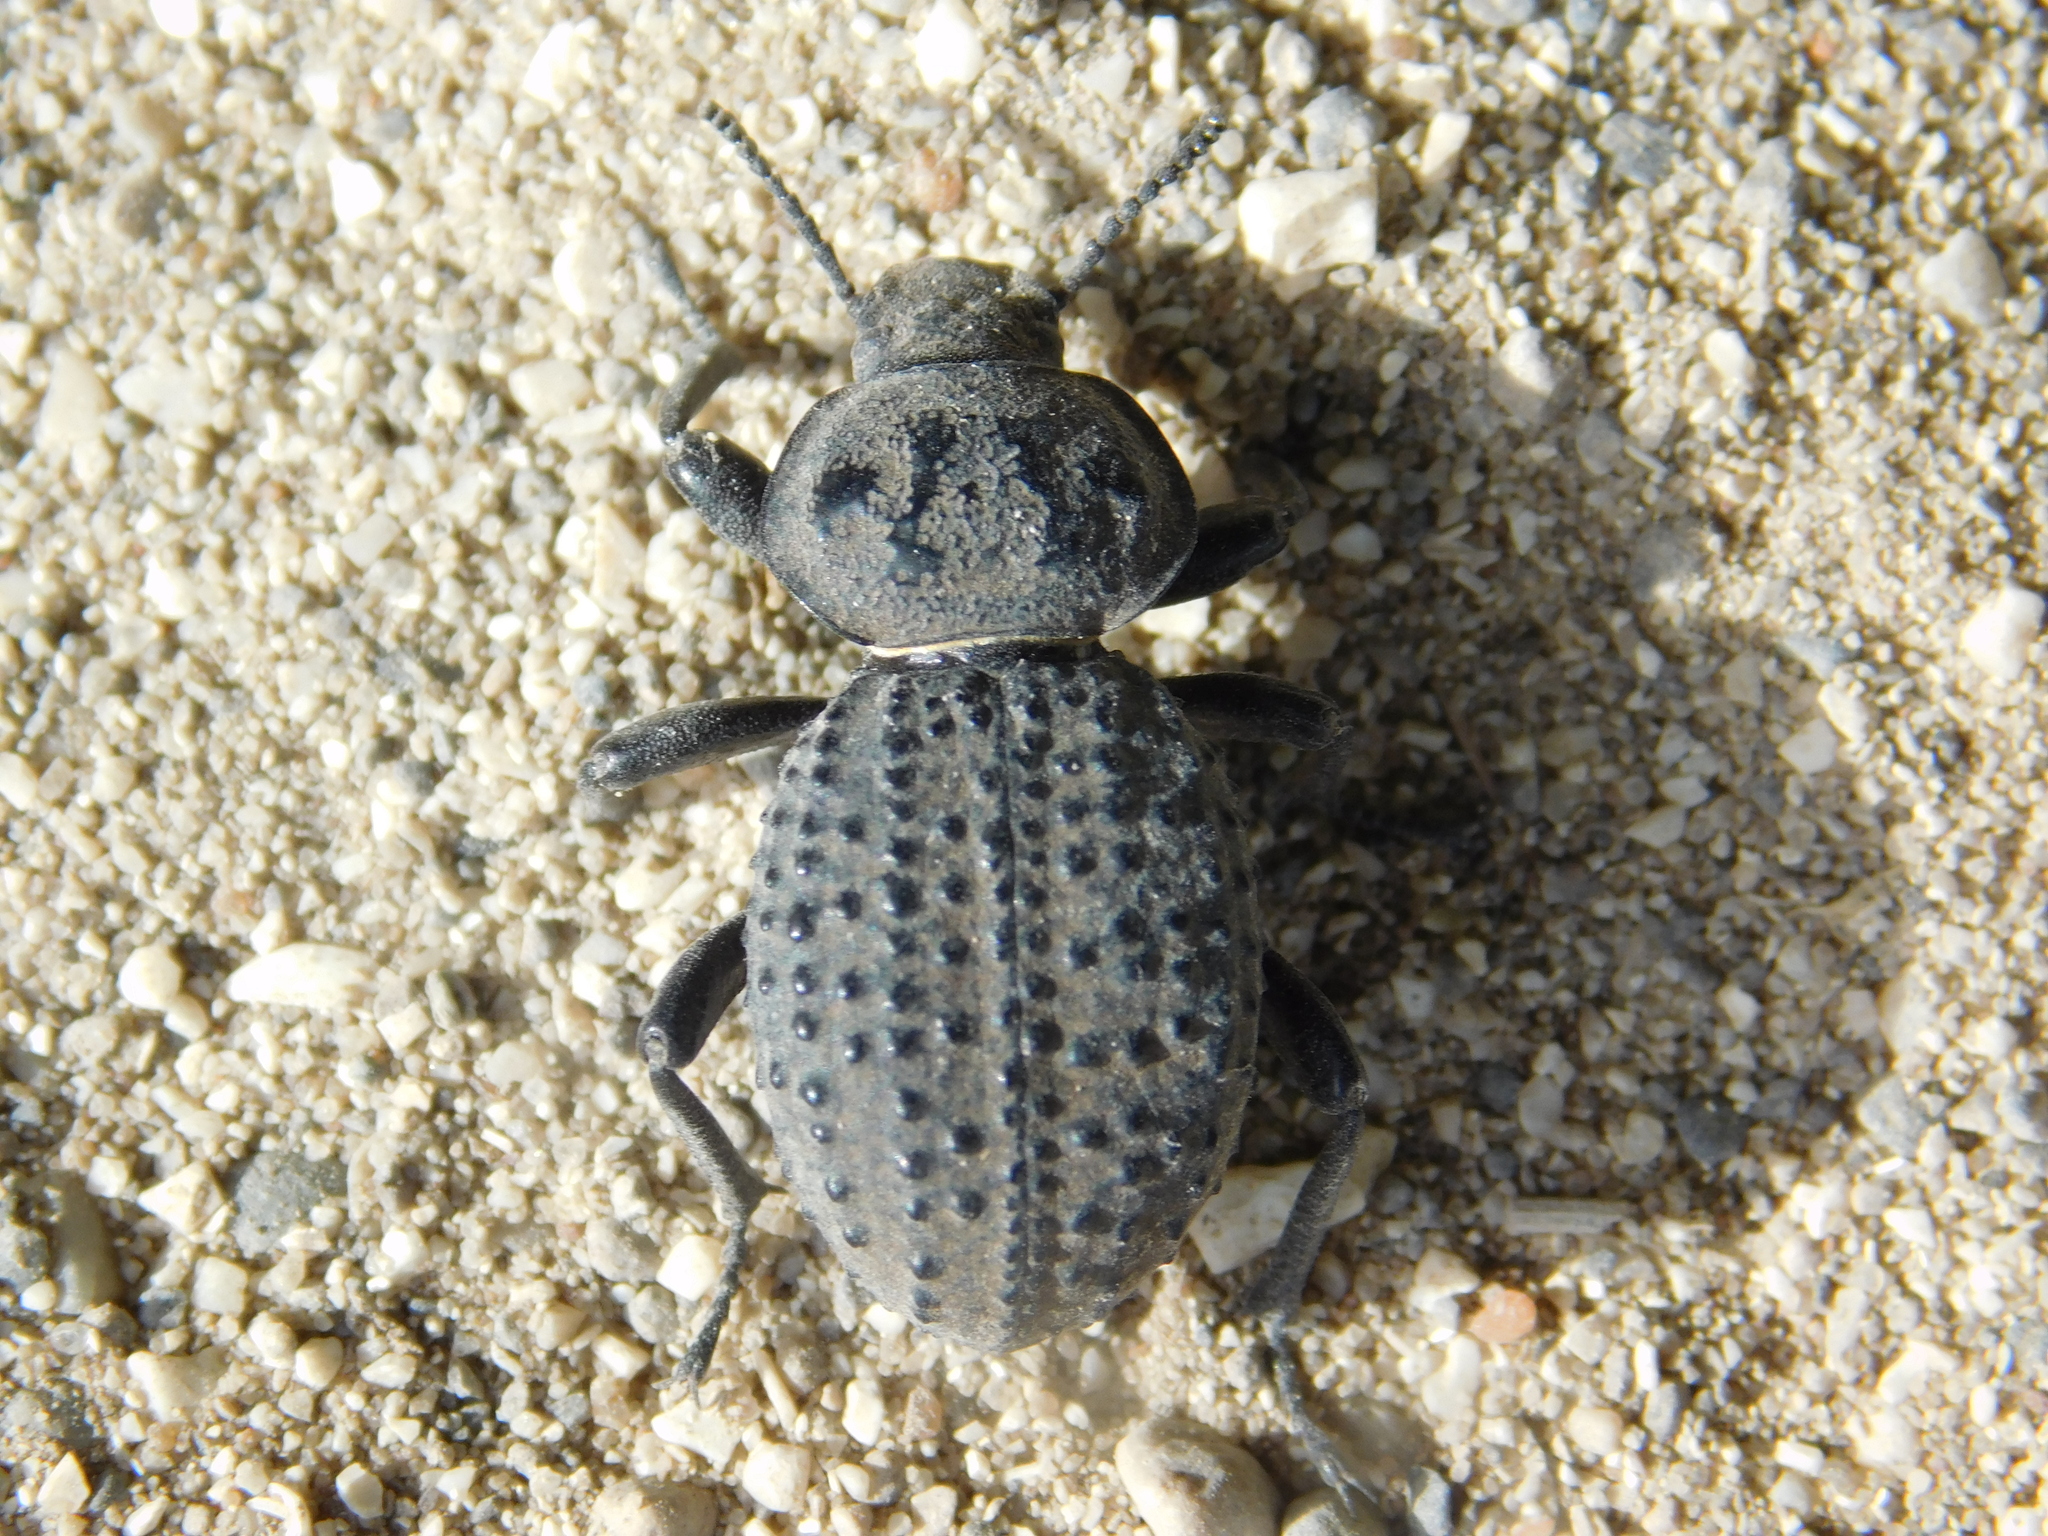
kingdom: Animalia
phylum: Arthropoda
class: Insecta
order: Coleoptera
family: Tenebrionidae
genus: Scotobius
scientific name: Scotobius pilularius
